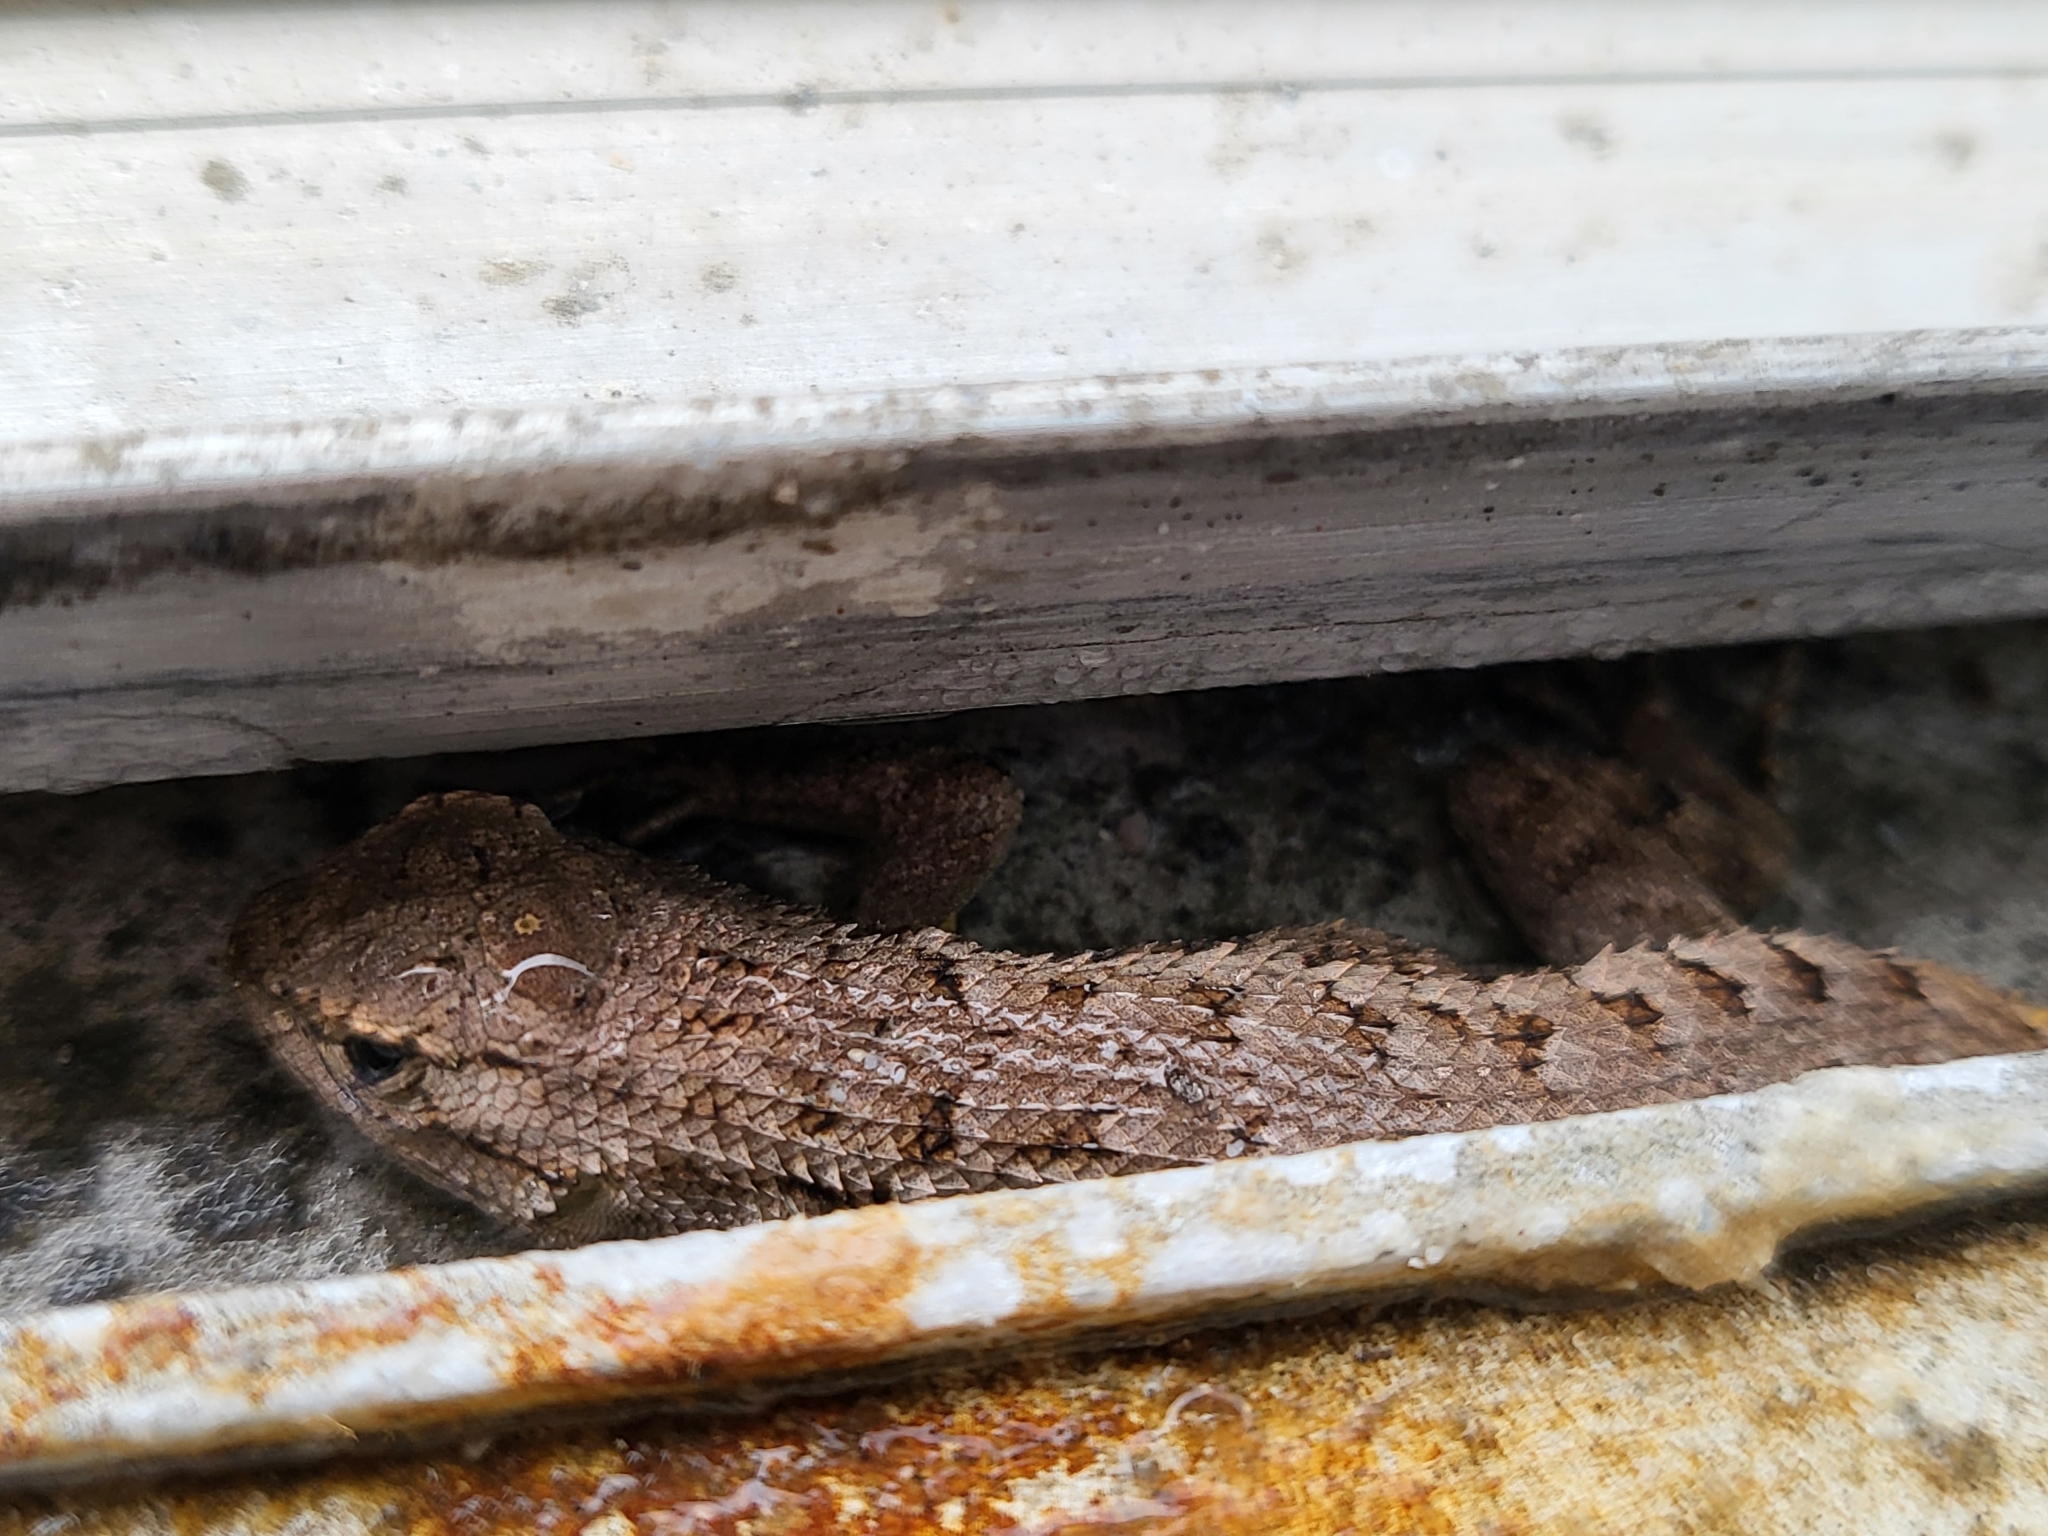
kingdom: Animalia
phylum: Chordata
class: Squamata
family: Phrynosomatidae
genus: Sceloporus
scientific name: Sceloporus occidentalis
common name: Western fence lizard
